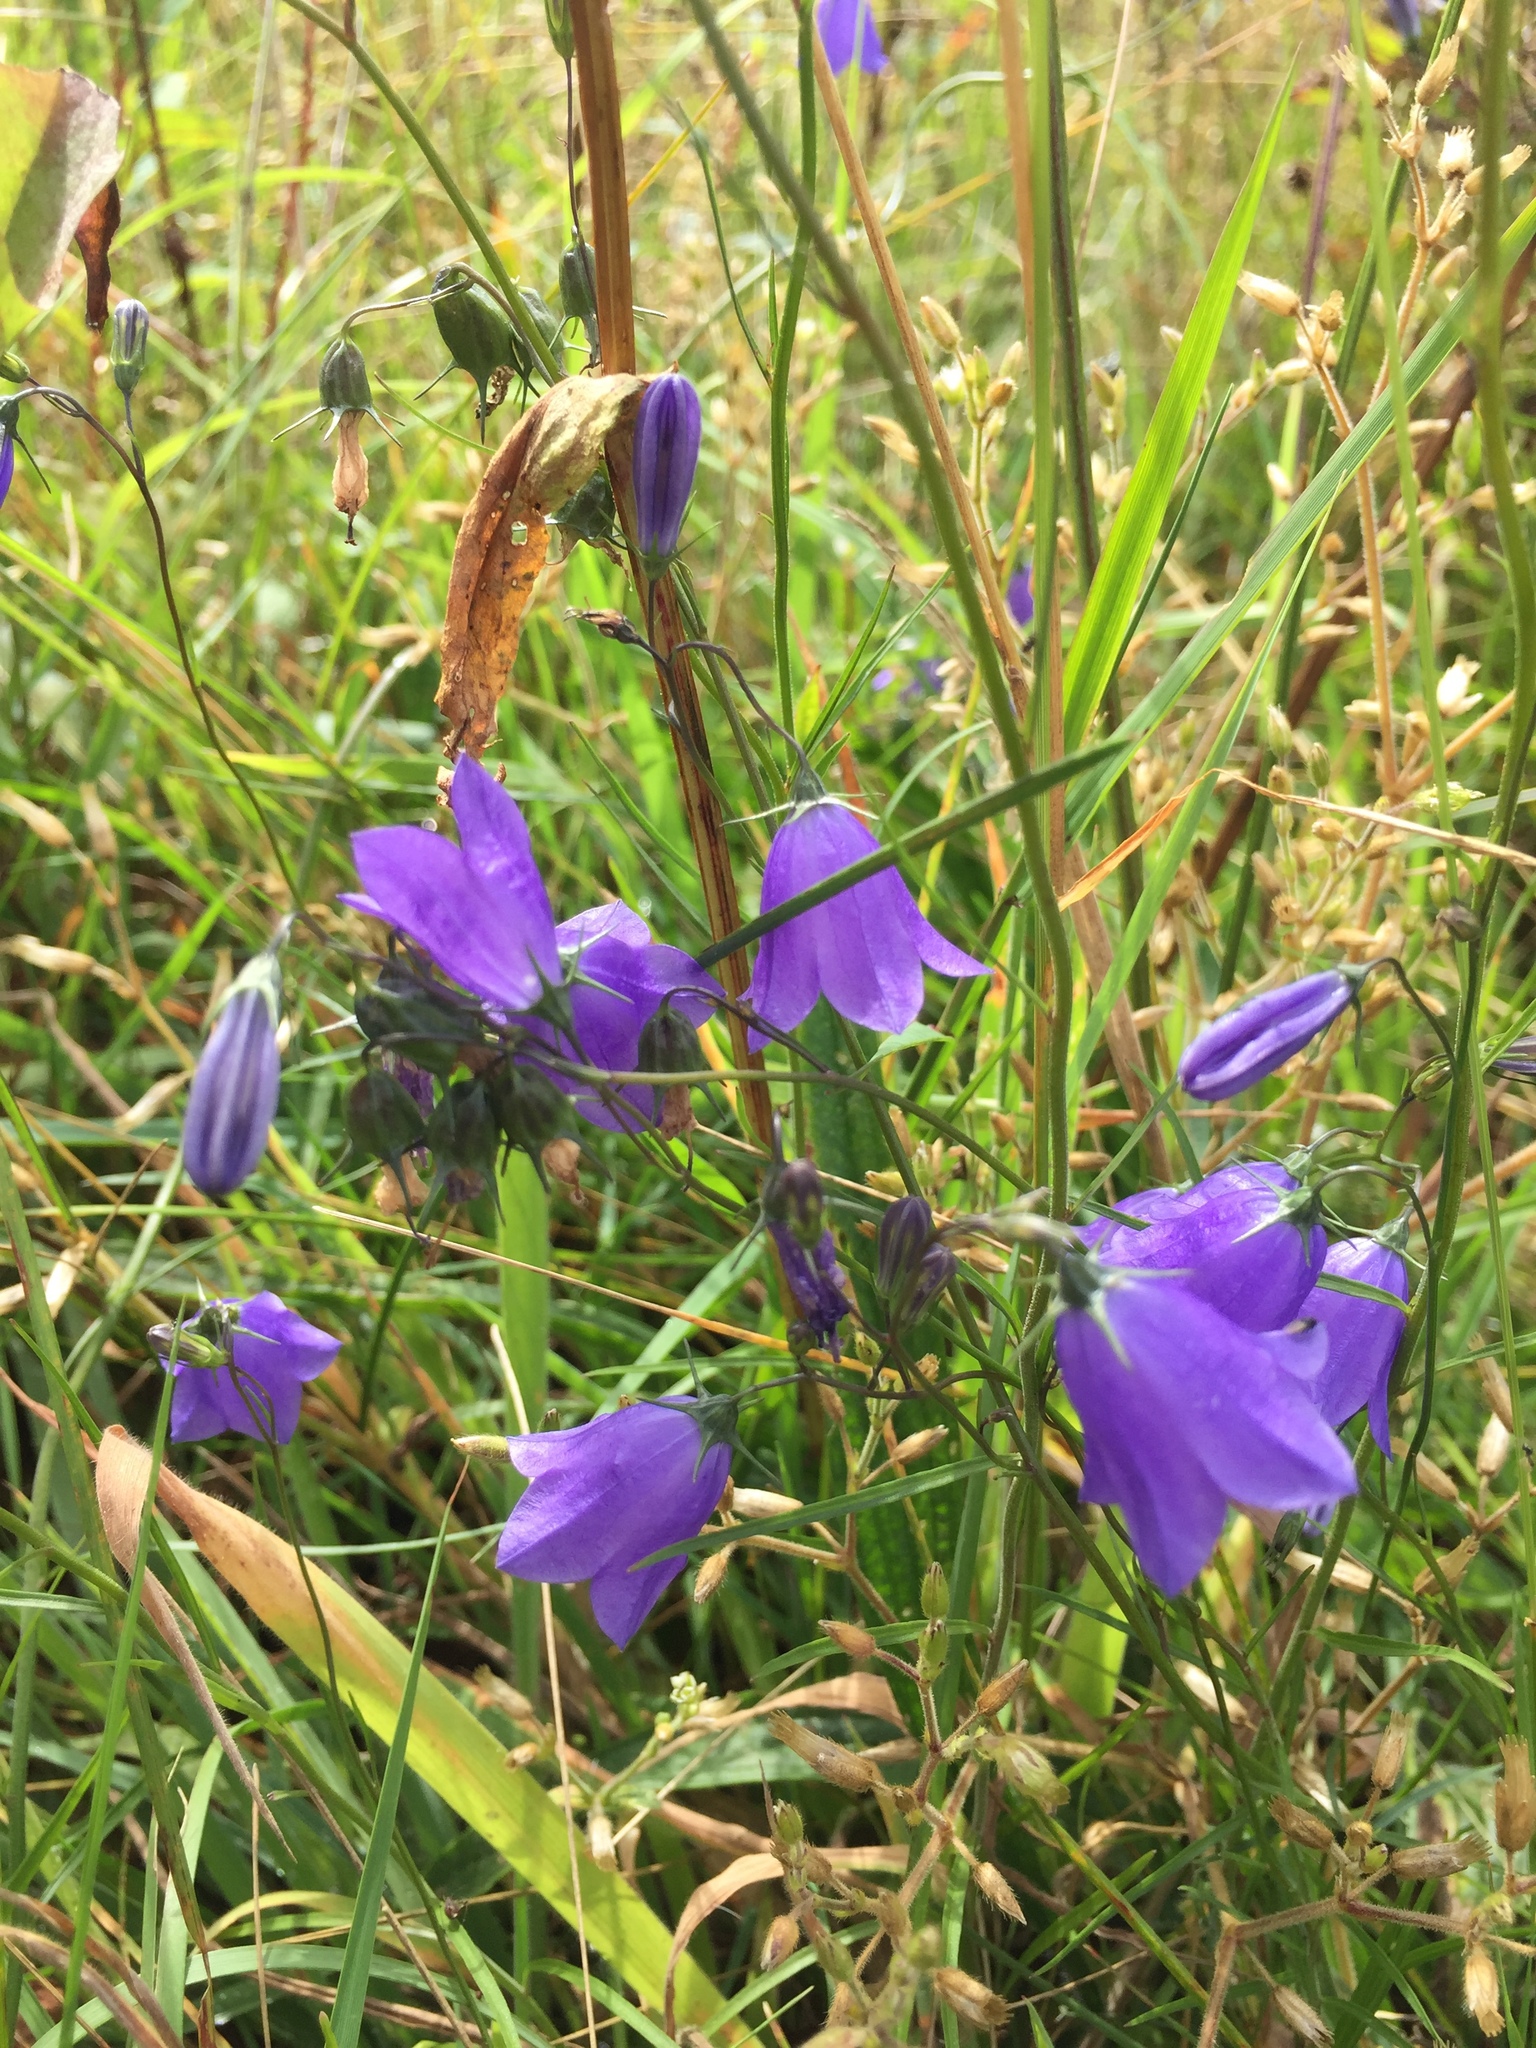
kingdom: Plantae
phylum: Tracheophyta
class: Magnoliopsida
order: Asterales
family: Campanulaceae
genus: Campanula
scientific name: Campanula rotundifolia
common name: Harebell
